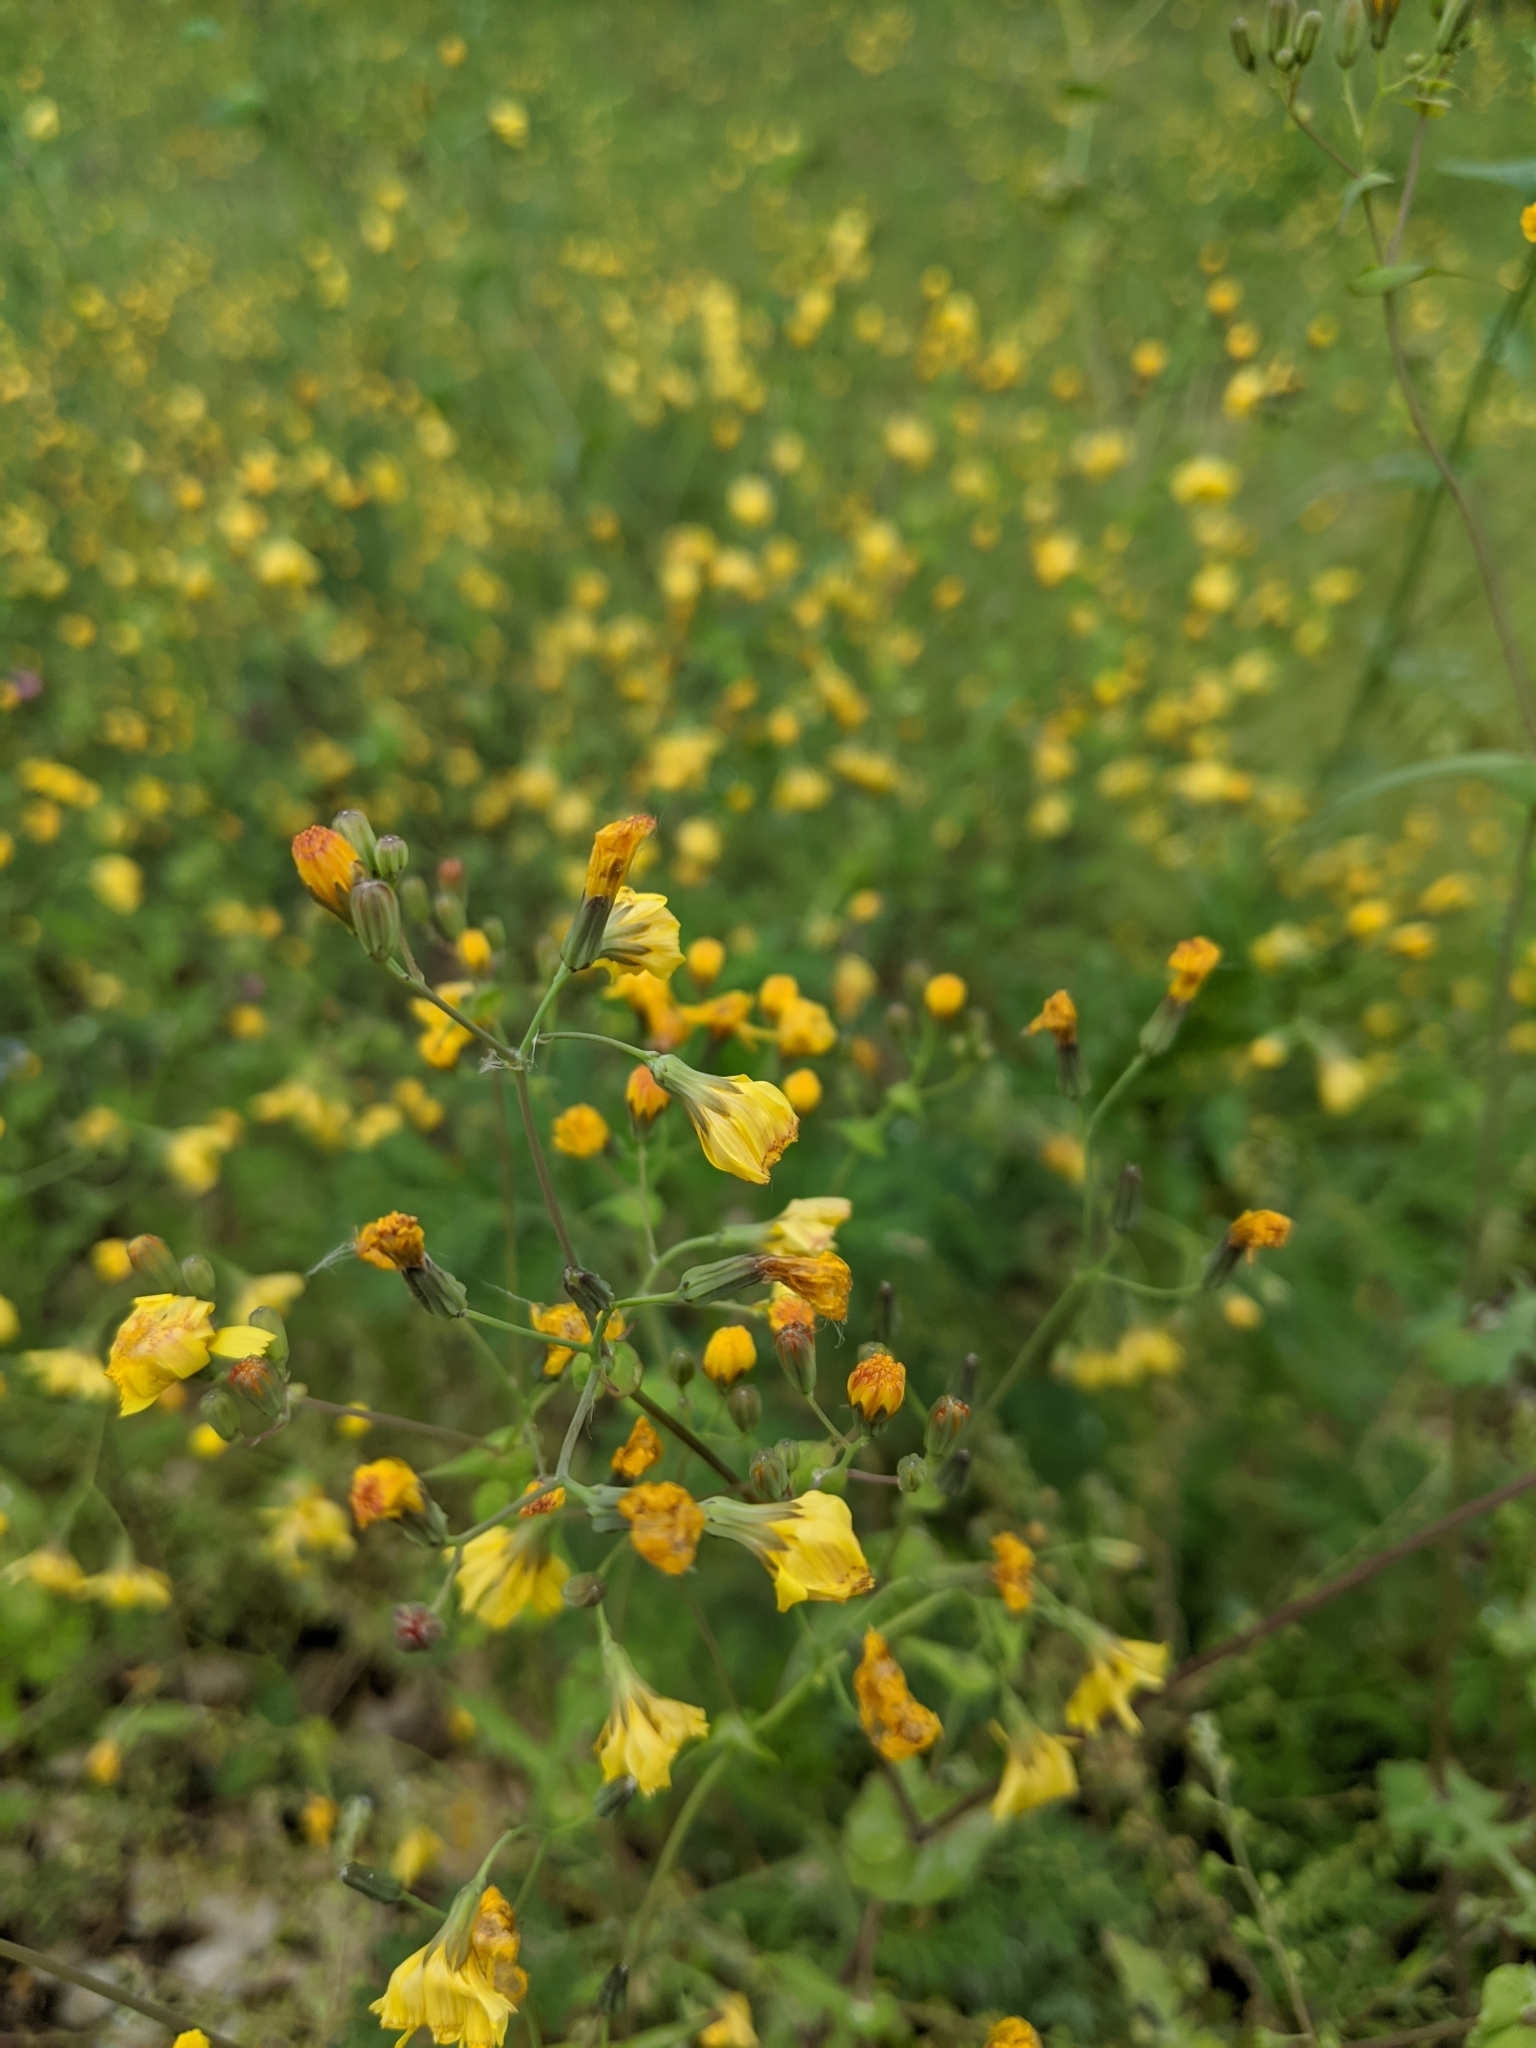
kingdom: Plantae
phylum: Tracheophyta
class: Magnoliopsida
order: Asterales
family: Asteraceae
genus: Ixeris
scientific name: Ixeris chinensis
